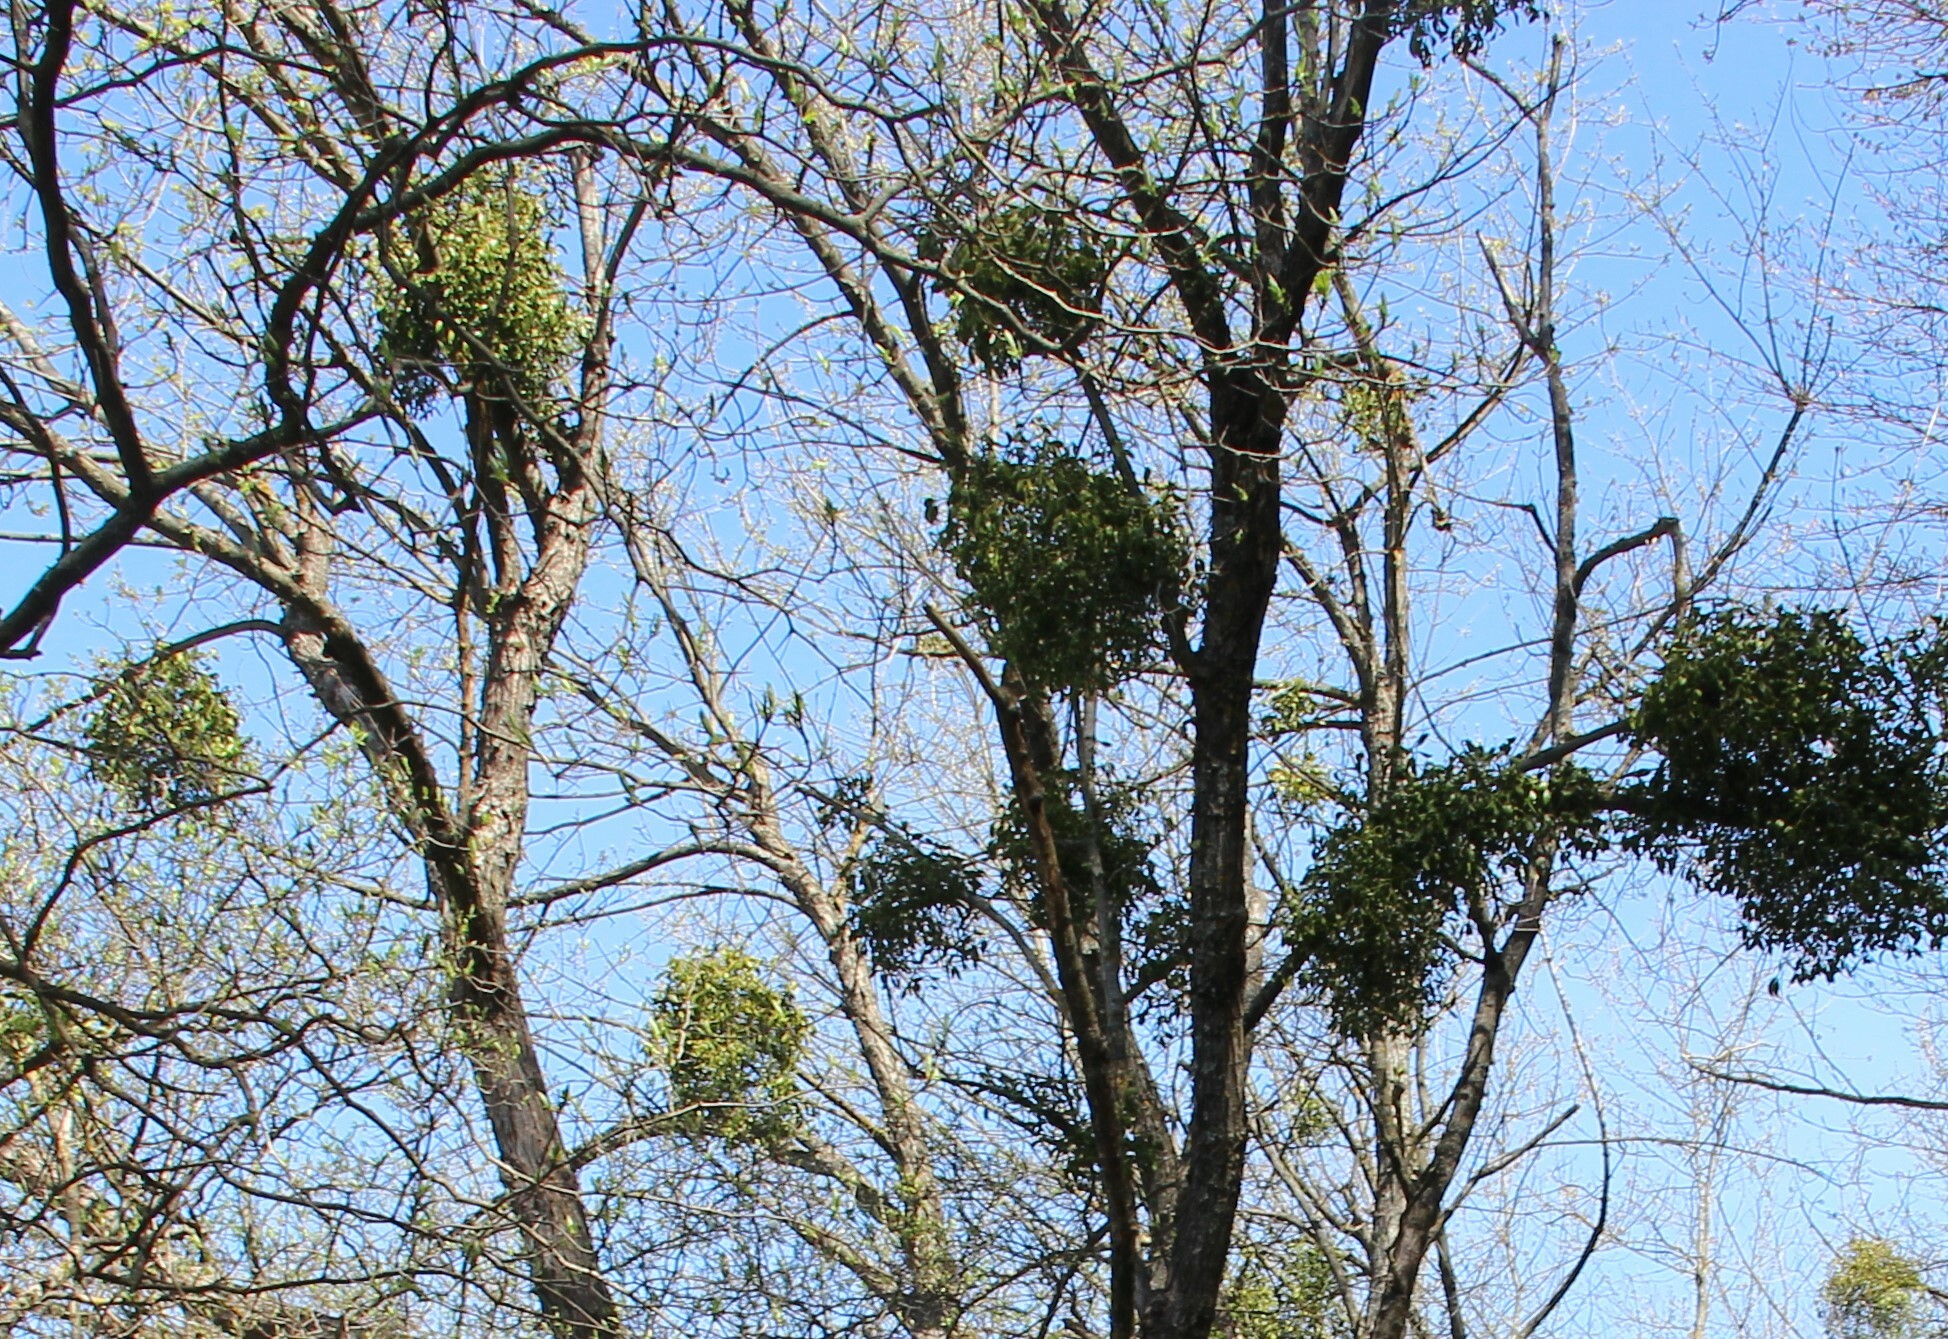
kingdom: Plantae
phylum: Tracheophyta
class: Magnoliopsida
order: Santalales
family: Viscaceae
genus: Viscum
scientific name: Viscum album
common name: Mistletoe
